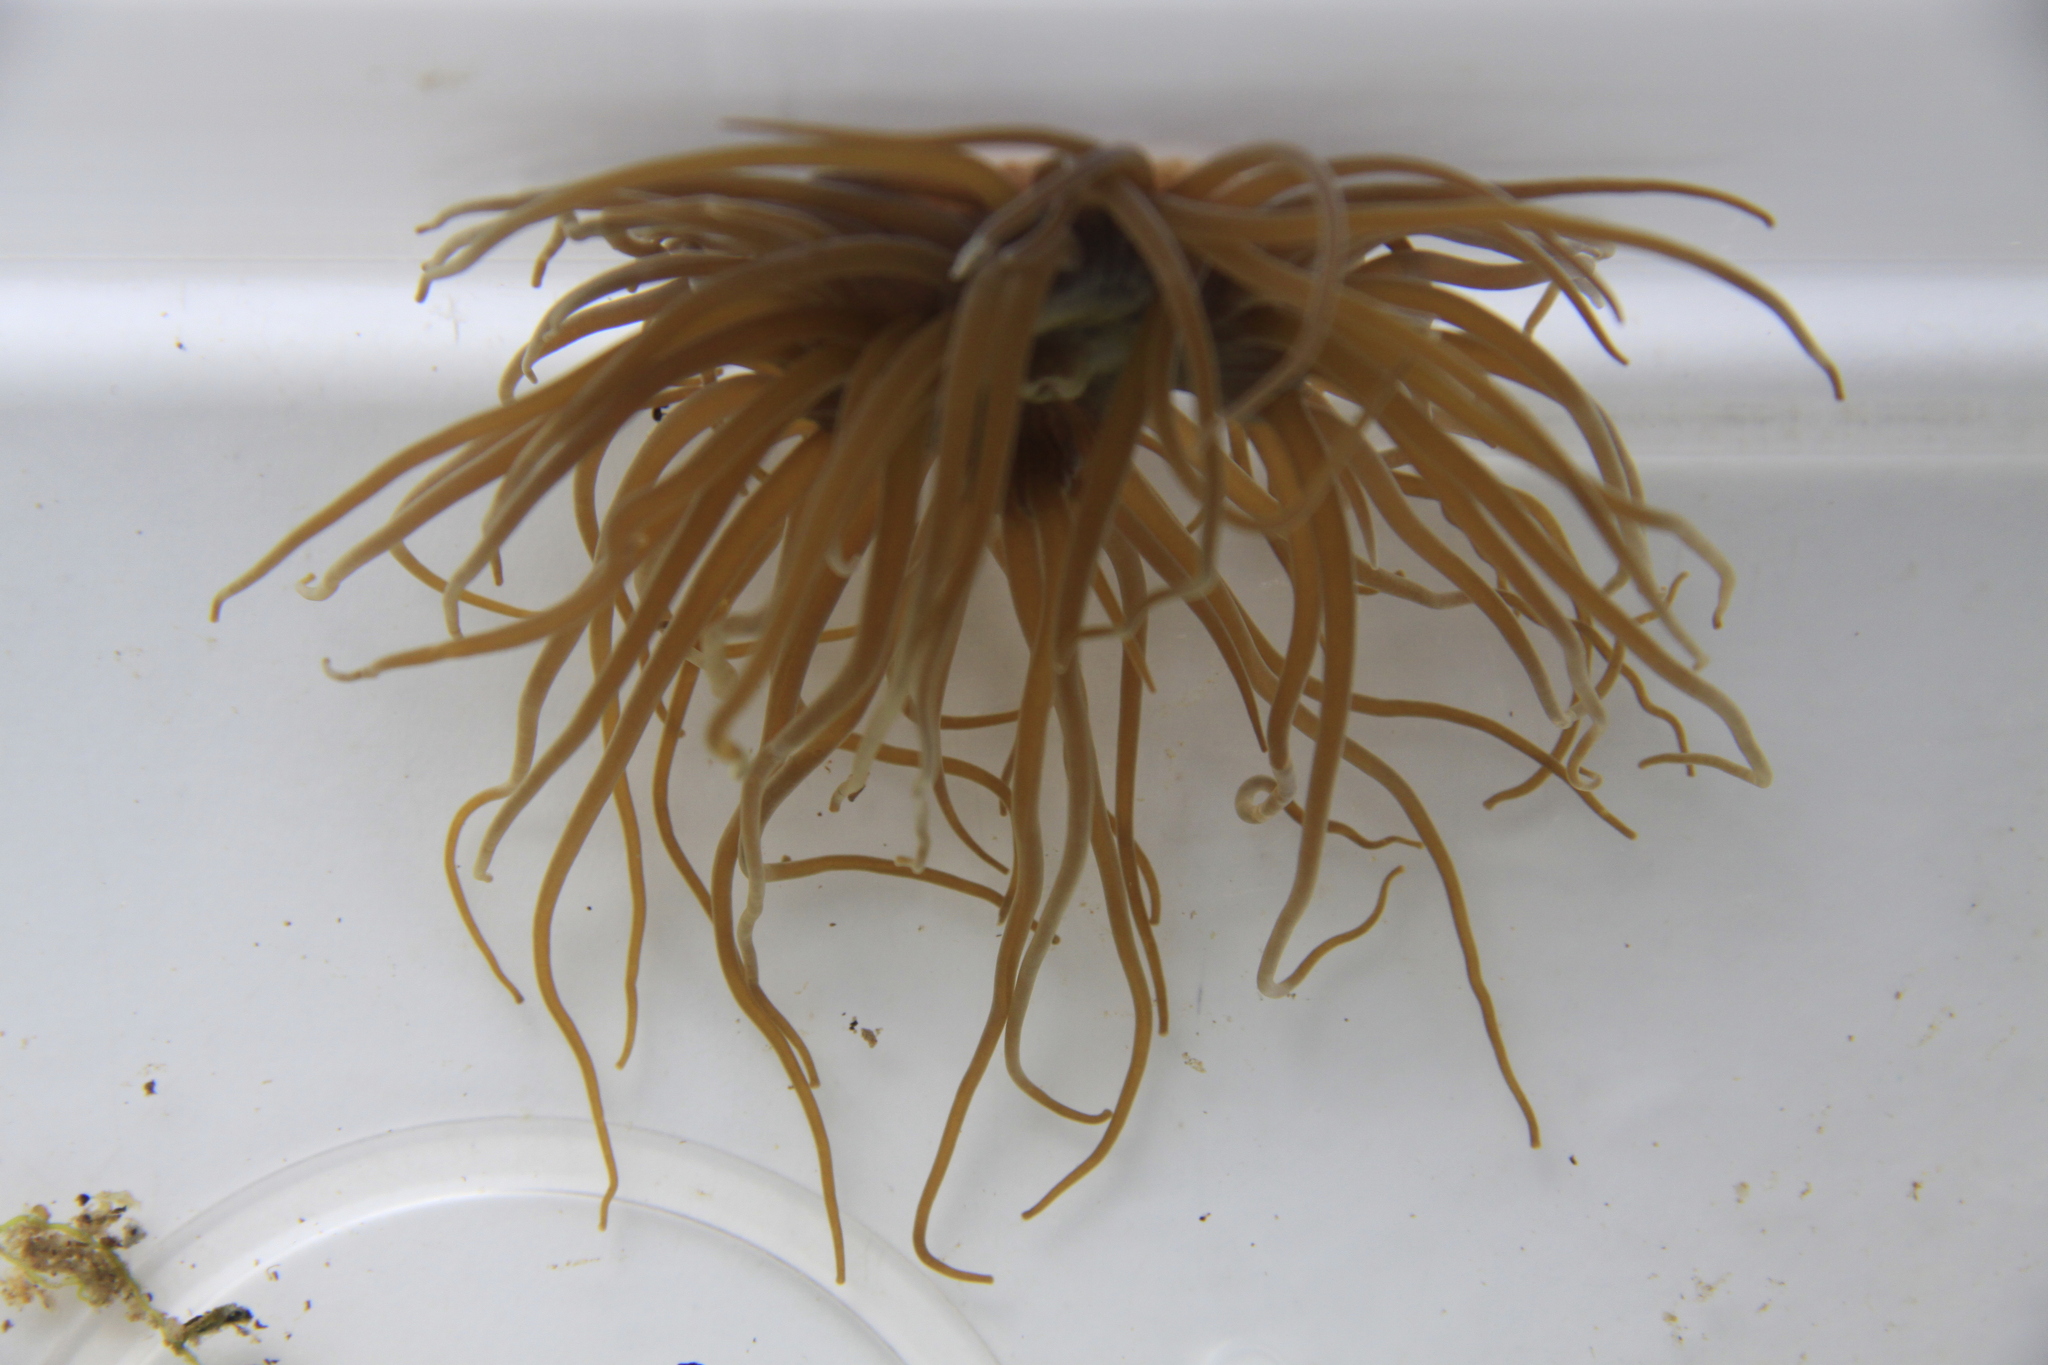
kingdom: Animalia
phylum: Cnidaria
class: Anthozoa
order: Actiniaria
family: Actiniidae
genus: Anemonia
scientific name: Anemonia viridis
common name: Snakelocks anemone
